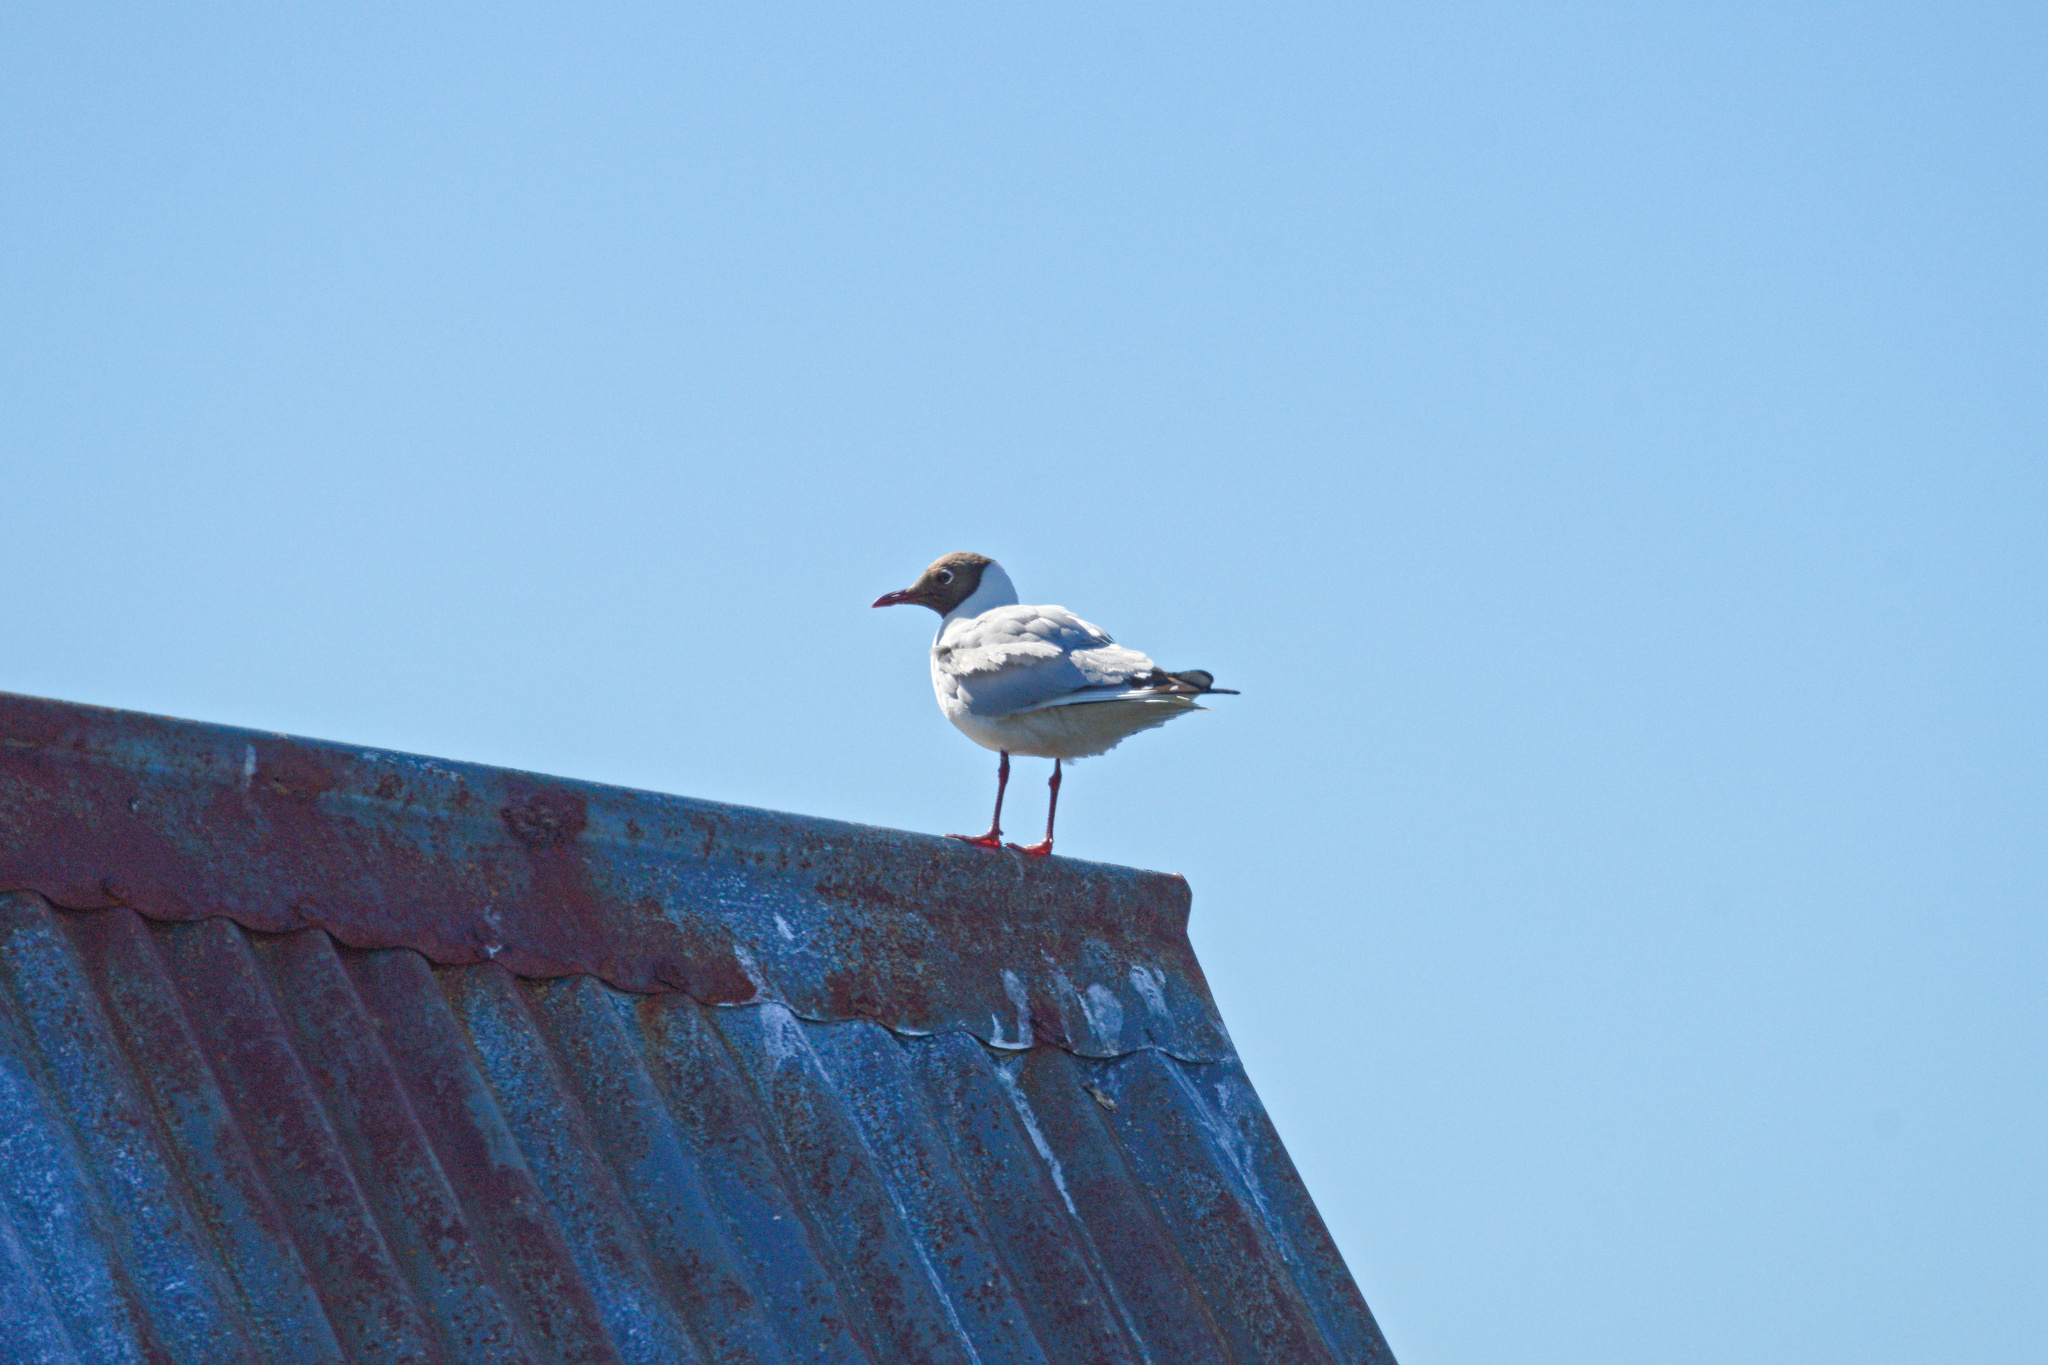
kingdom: Animalia
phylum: Chordata
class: Aves
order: Charadriiformes
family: Laridae
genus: Chroicocephalus
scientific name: Chroicocephalus ridibundus
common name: Black-headed gull
